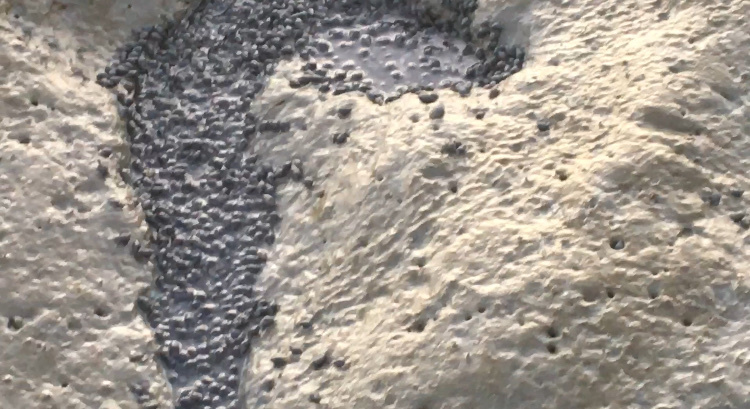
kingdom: Animalia
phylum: Mollusca
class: Gastropoda
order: Neogastropoda
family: Nassariidae
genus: Ilyanassa
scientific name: Ilyanassa obsoleta
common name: Eastern mudsnail
